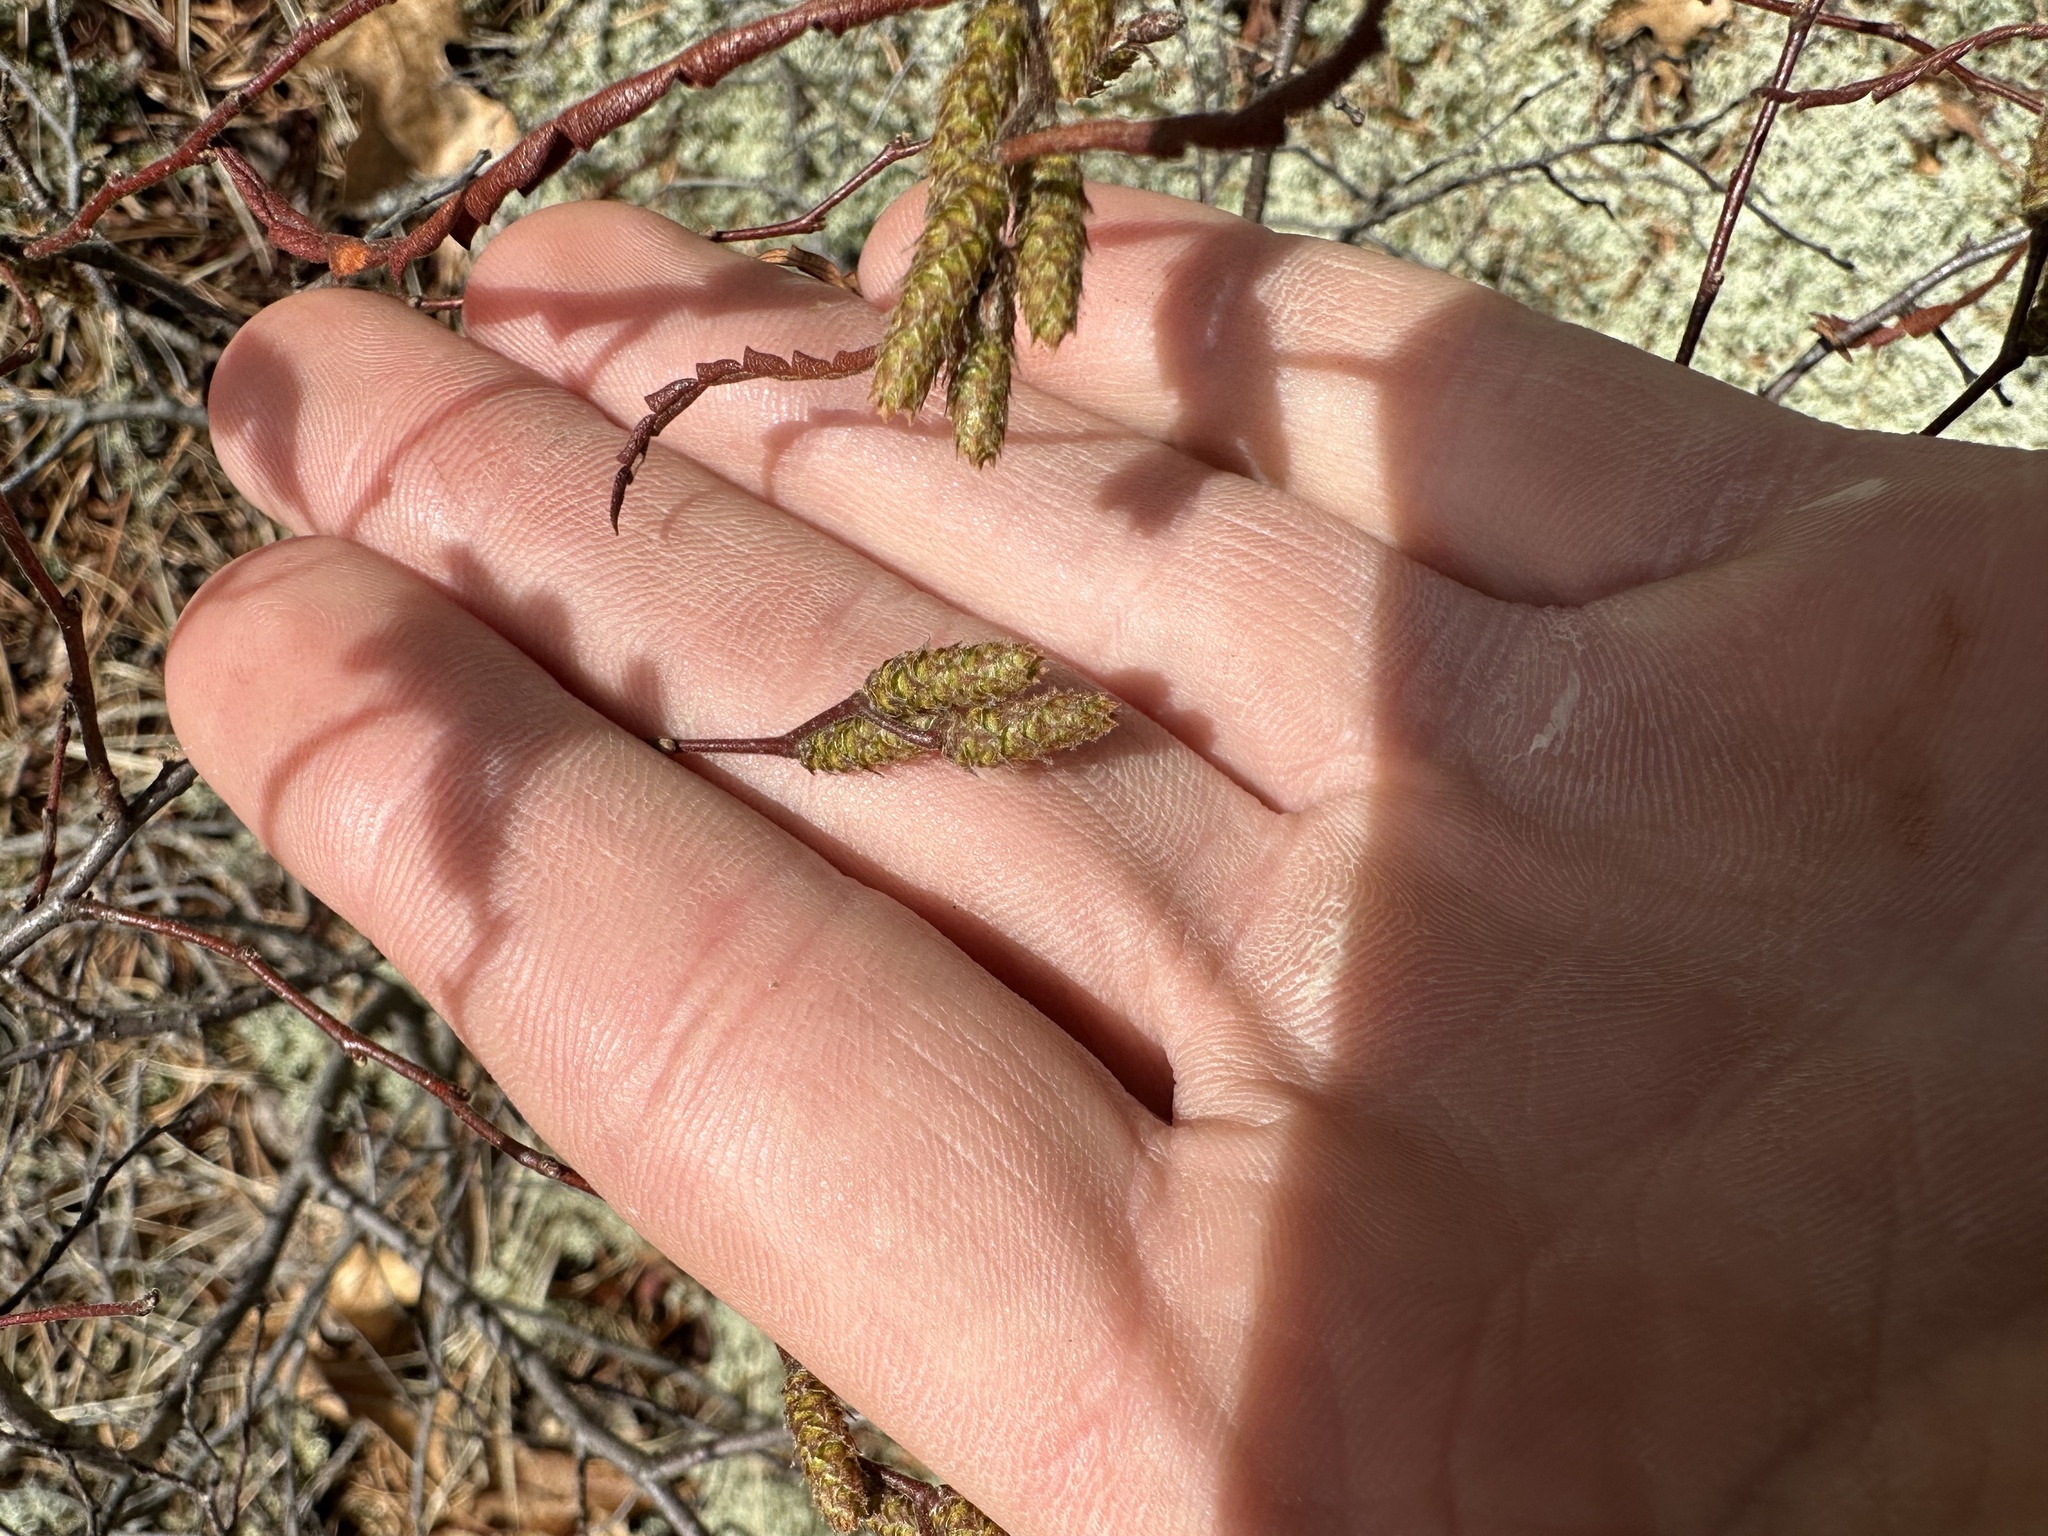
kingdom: Plantae
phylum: Tracheophyta
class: Magnoliopsida
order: Fagales
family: Myricaceae
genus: Comptonia
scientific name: Comptonia peregrina
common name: Sweet-fern
